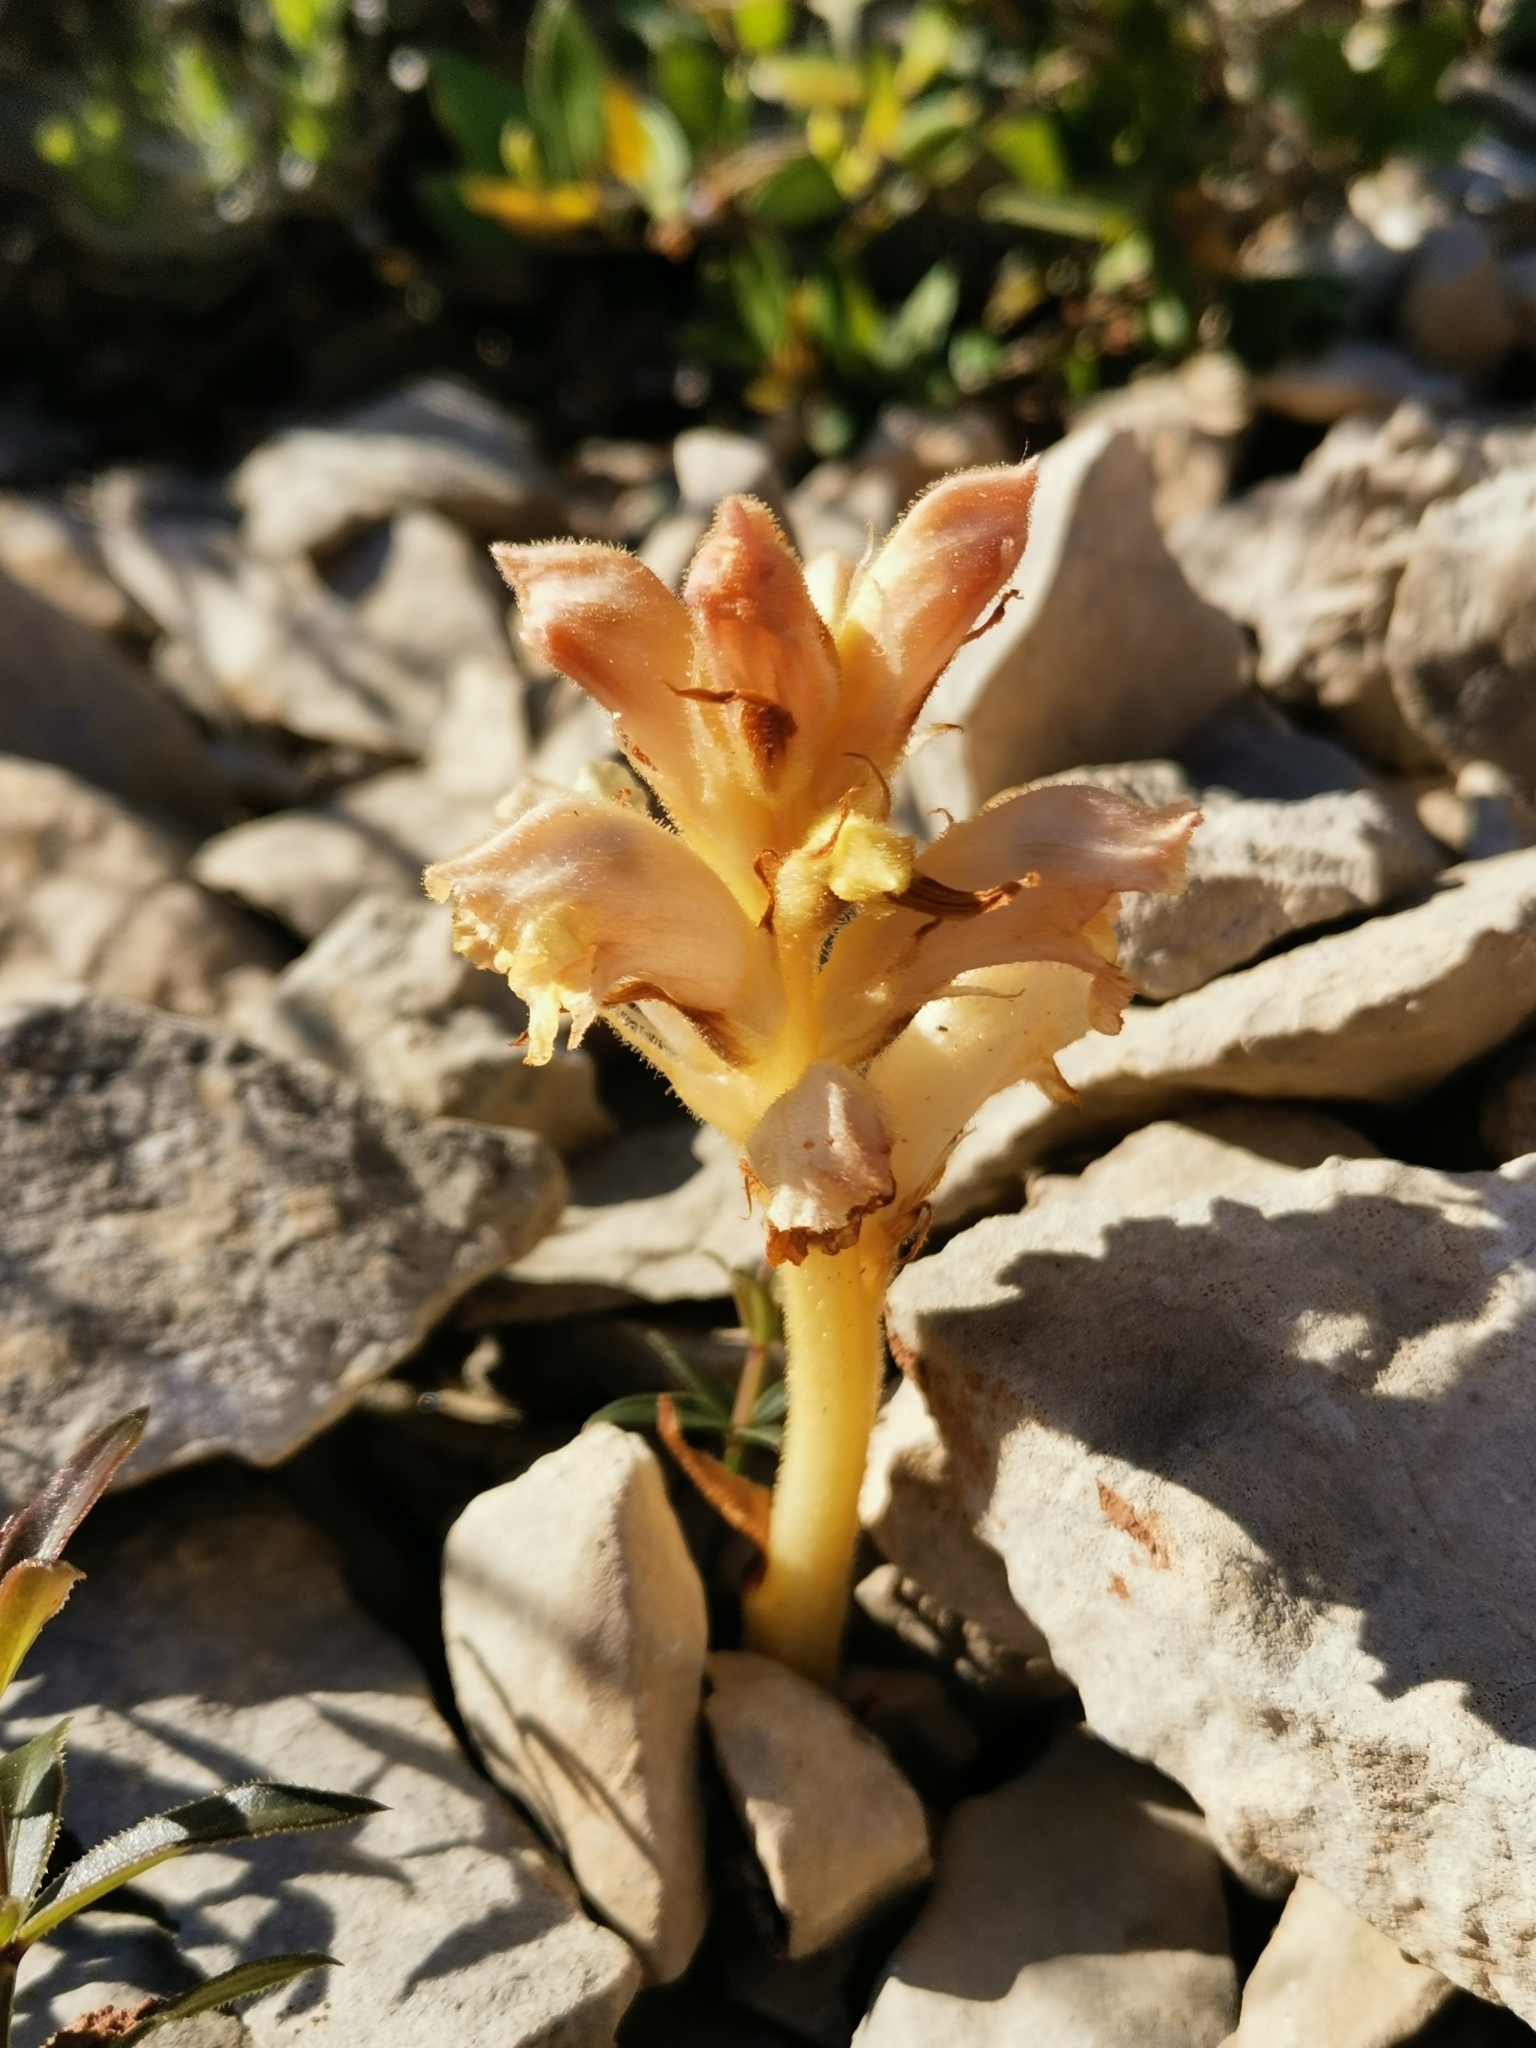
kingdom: Plantae
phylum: Tracheophyta
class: Magnoliopsida
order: Lamiales
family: Orobanchaceae
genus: Orobanche
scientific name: Orobanche caryophyllacea
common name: Bedstraw broomrape
